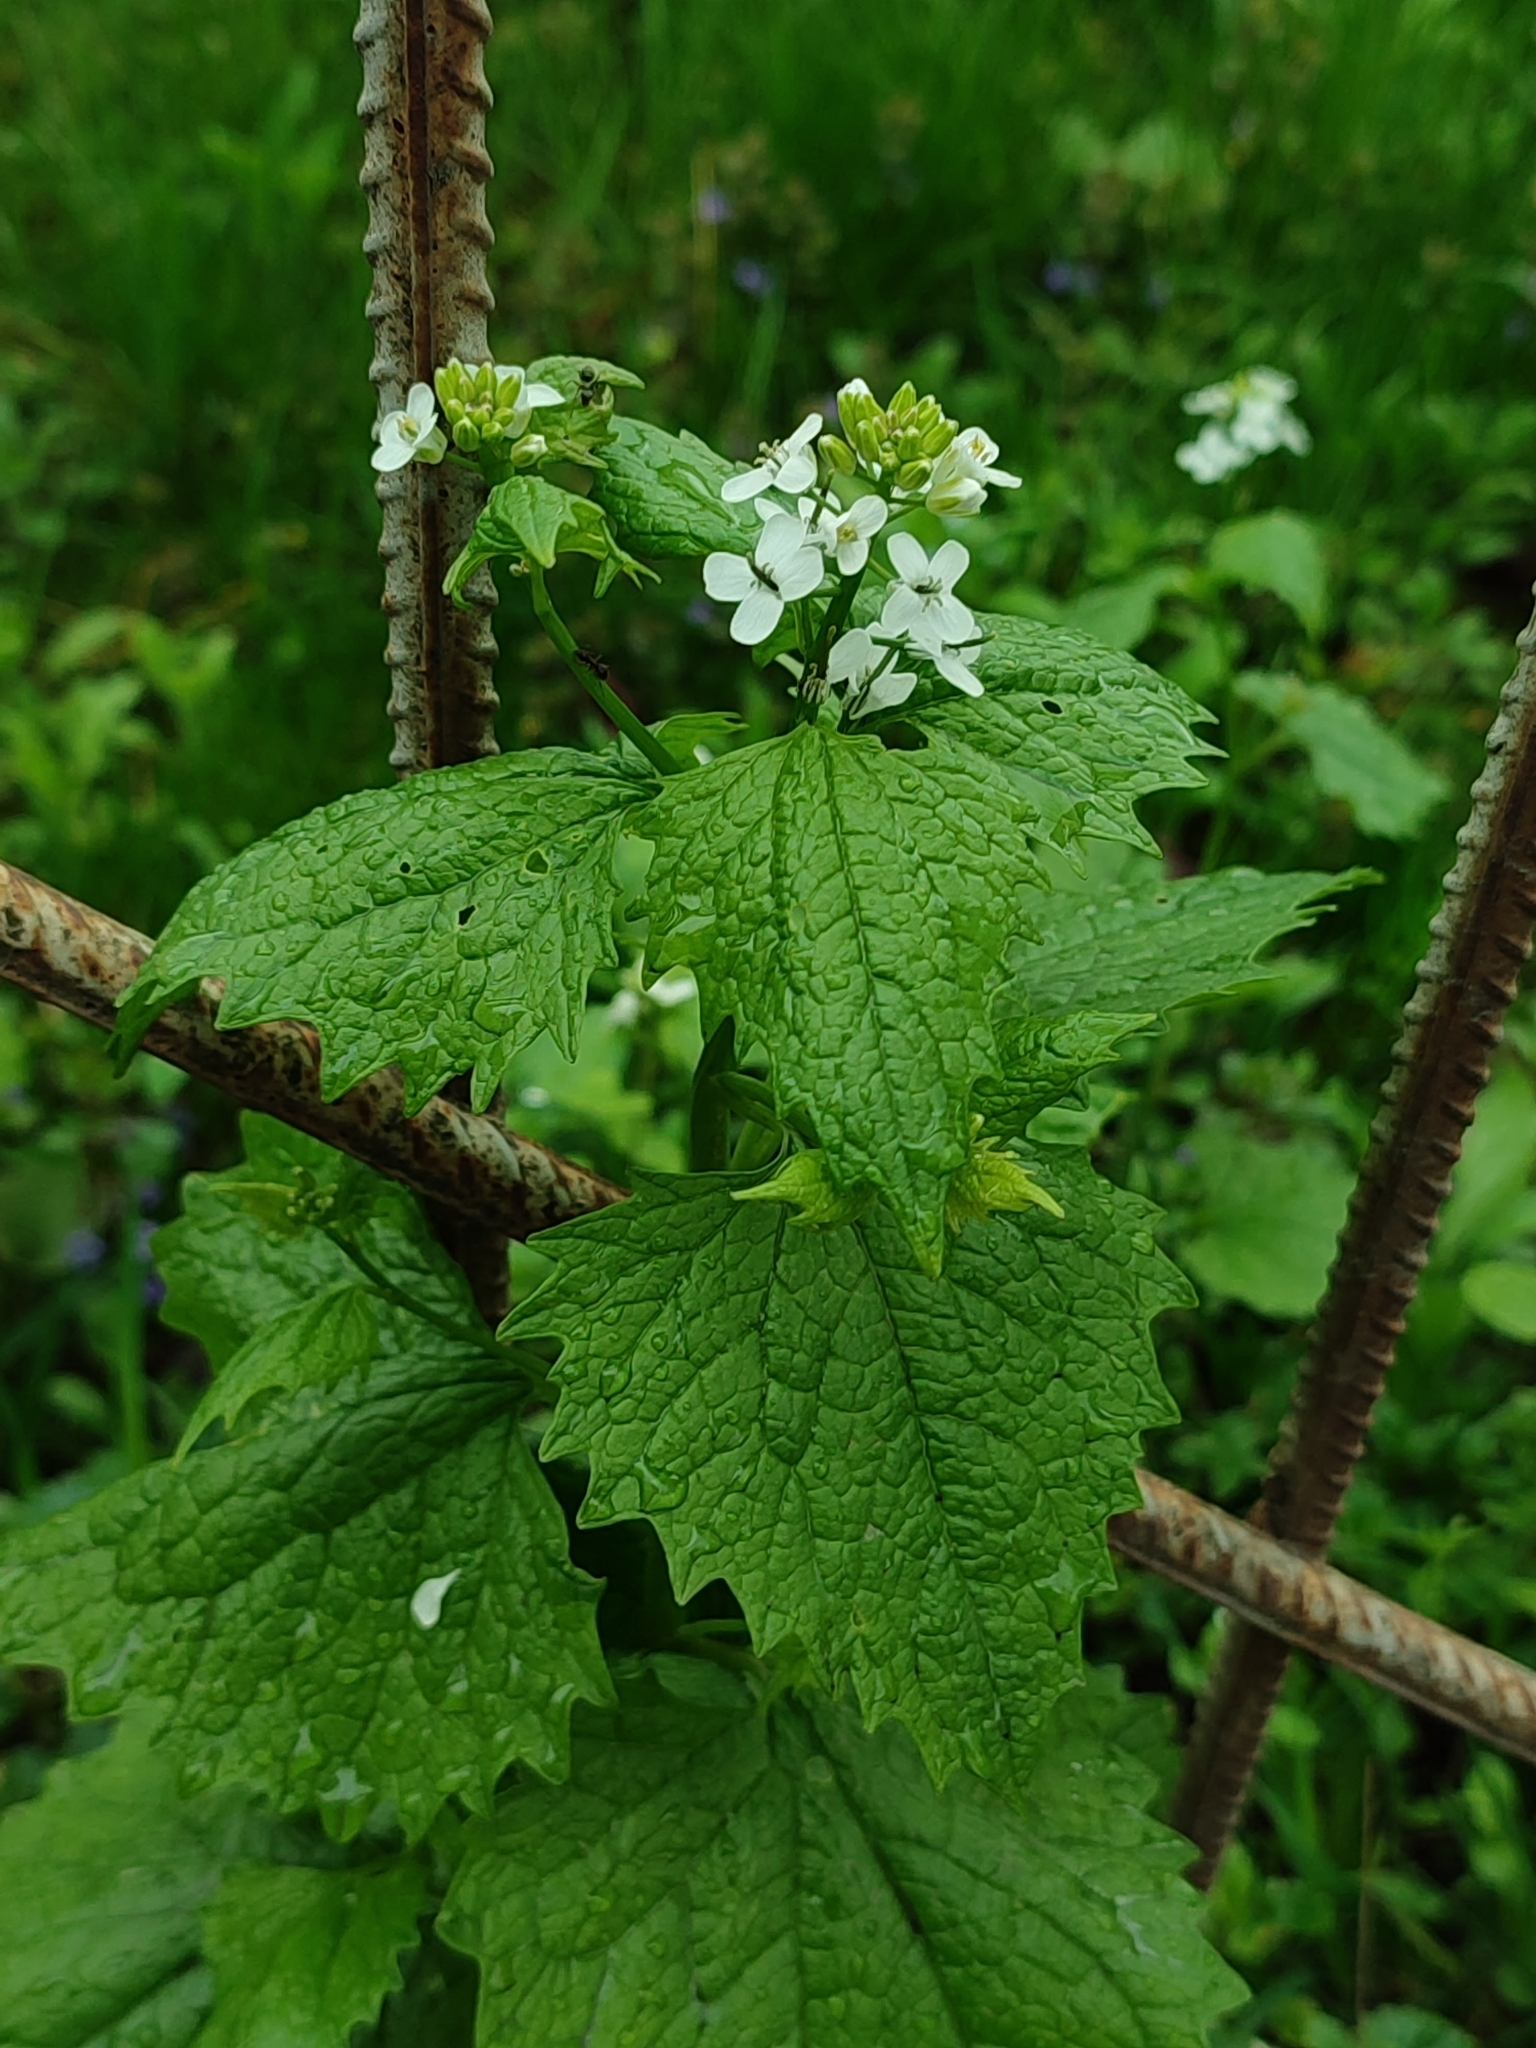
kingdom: Plantae
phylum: Tracheophyta
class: Magnoliopsida
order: Brassicales
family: Brassicaceae
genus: Alliaria
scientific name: Alliaria petiolata
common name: Garlic mustard
